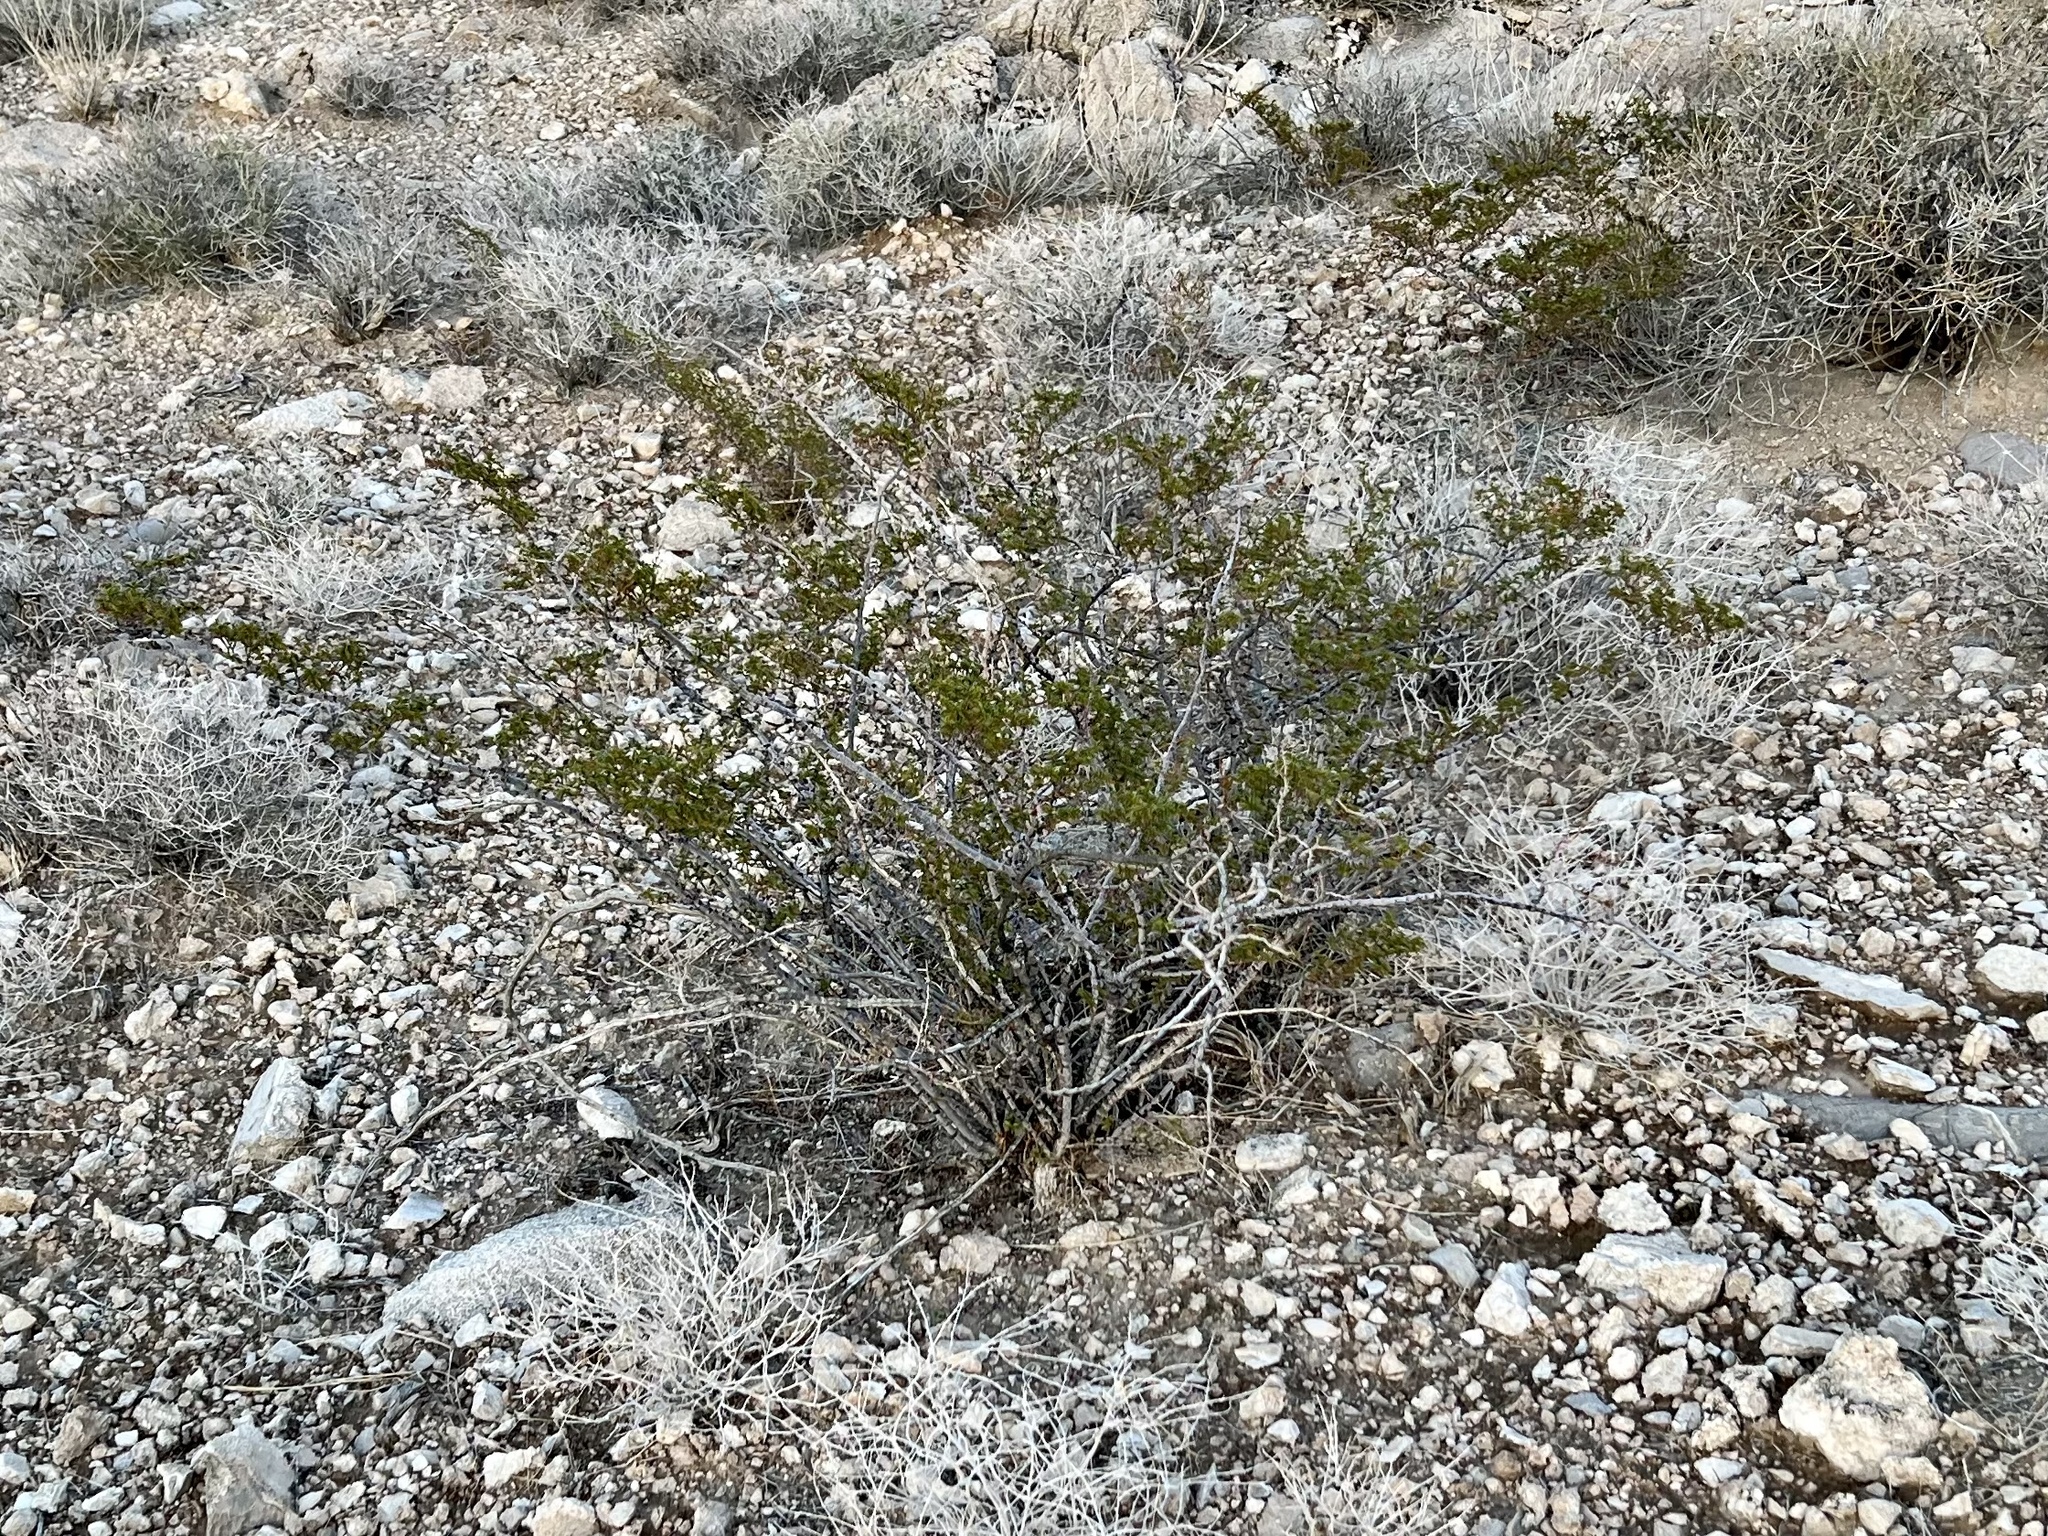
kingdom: Plantae
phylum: Tracheophyta
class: Magnoliopsida
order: Zygophyllales
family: Zygophyllaceae
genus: Larrea
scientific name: Larrea tridentata
